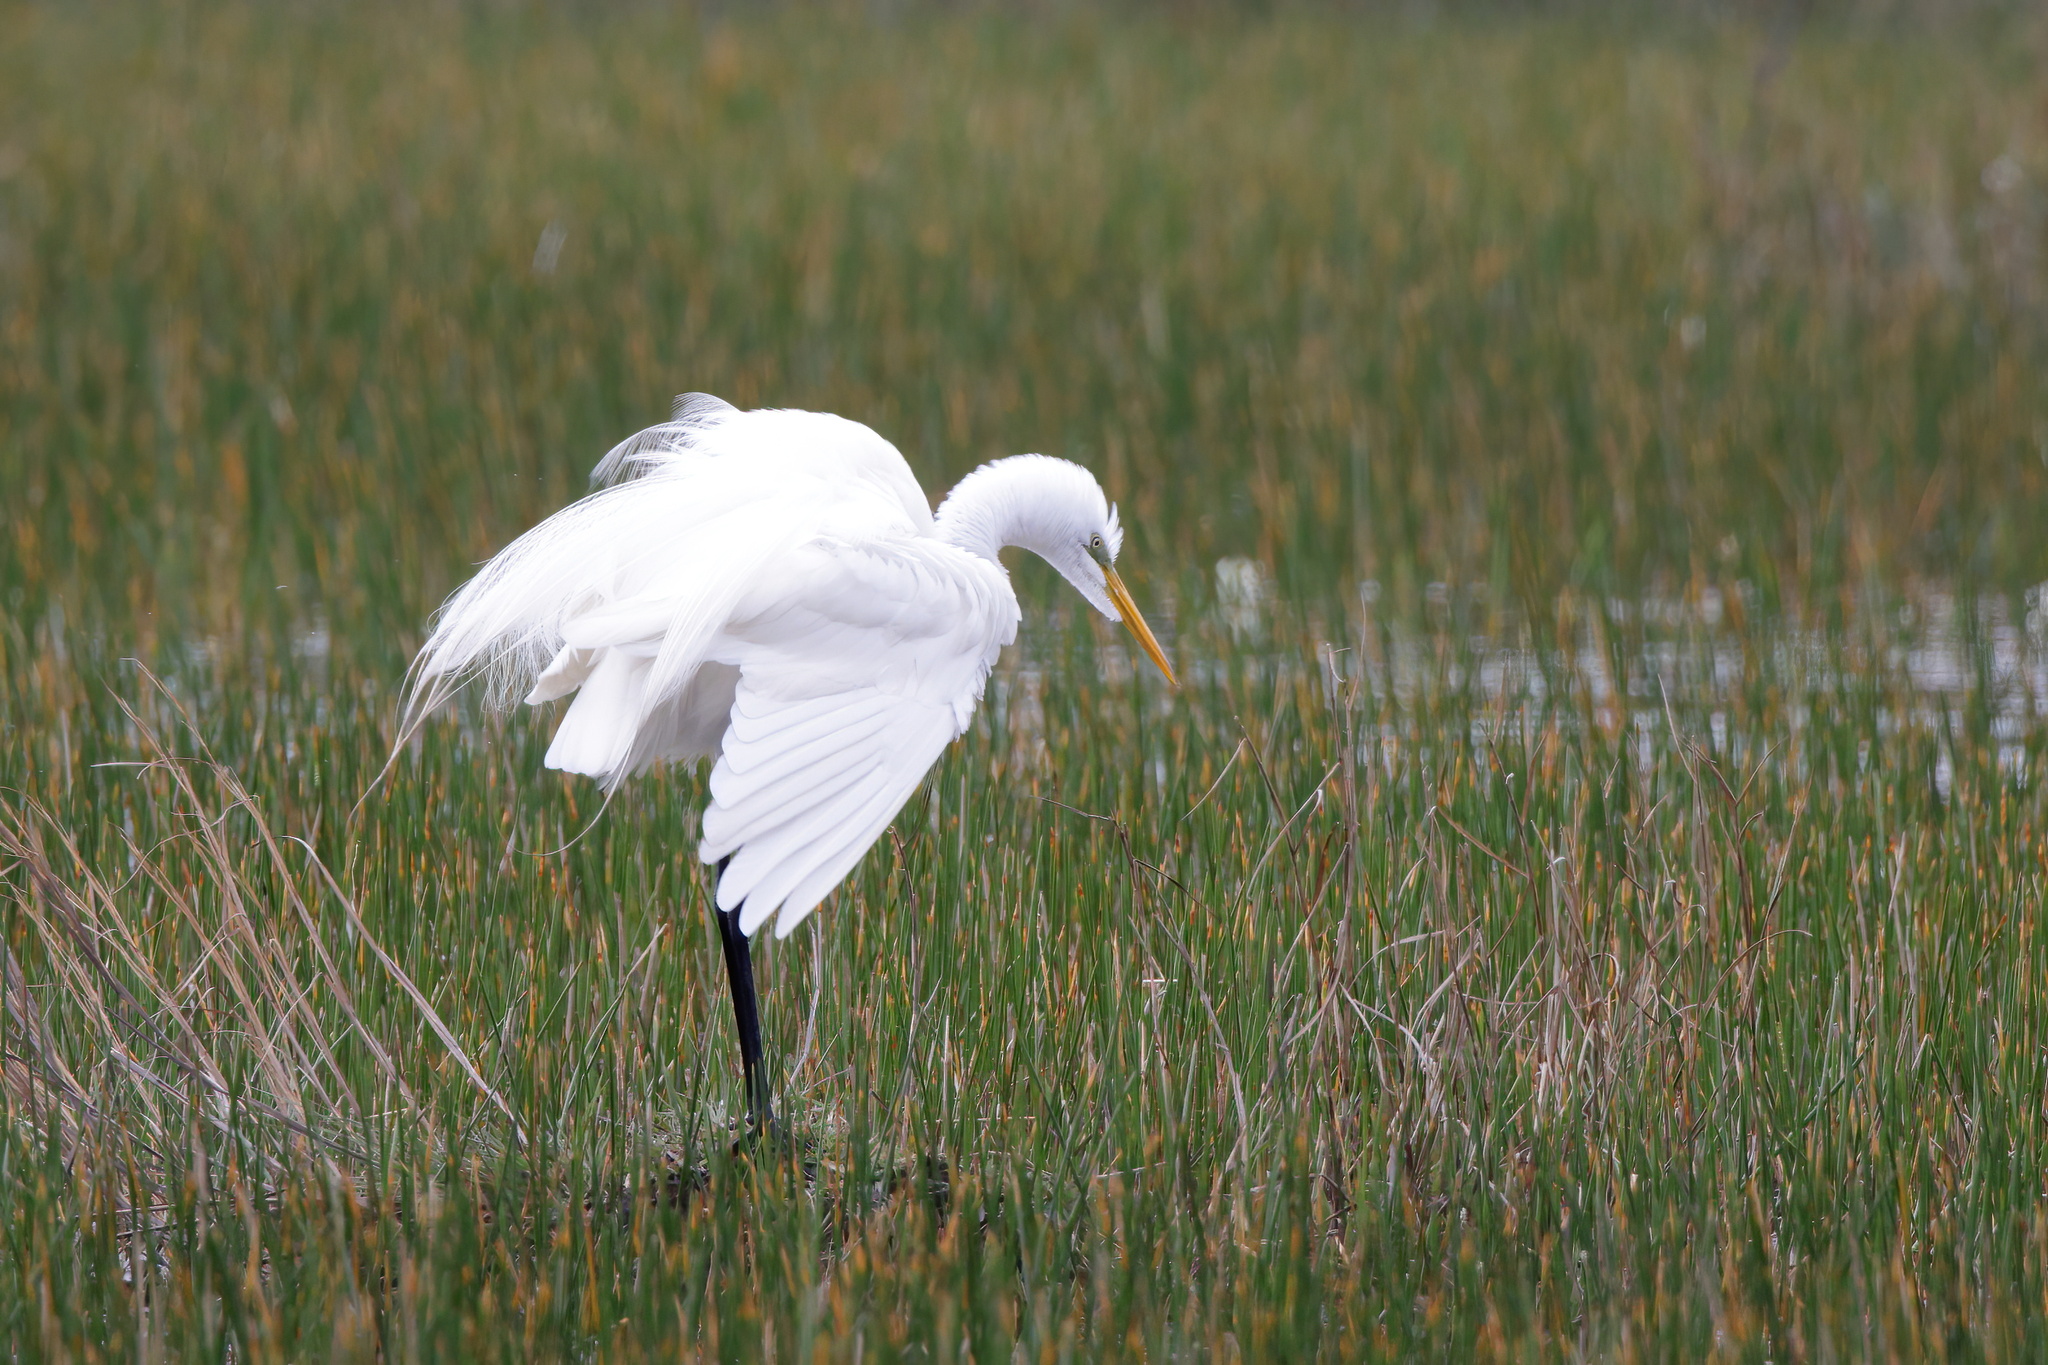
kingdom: Animalia
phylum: Chordata
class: Aves
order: Pelecaniformes
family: Ardeidae
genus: Ardea
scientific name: Ardea alba
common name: Great egret
